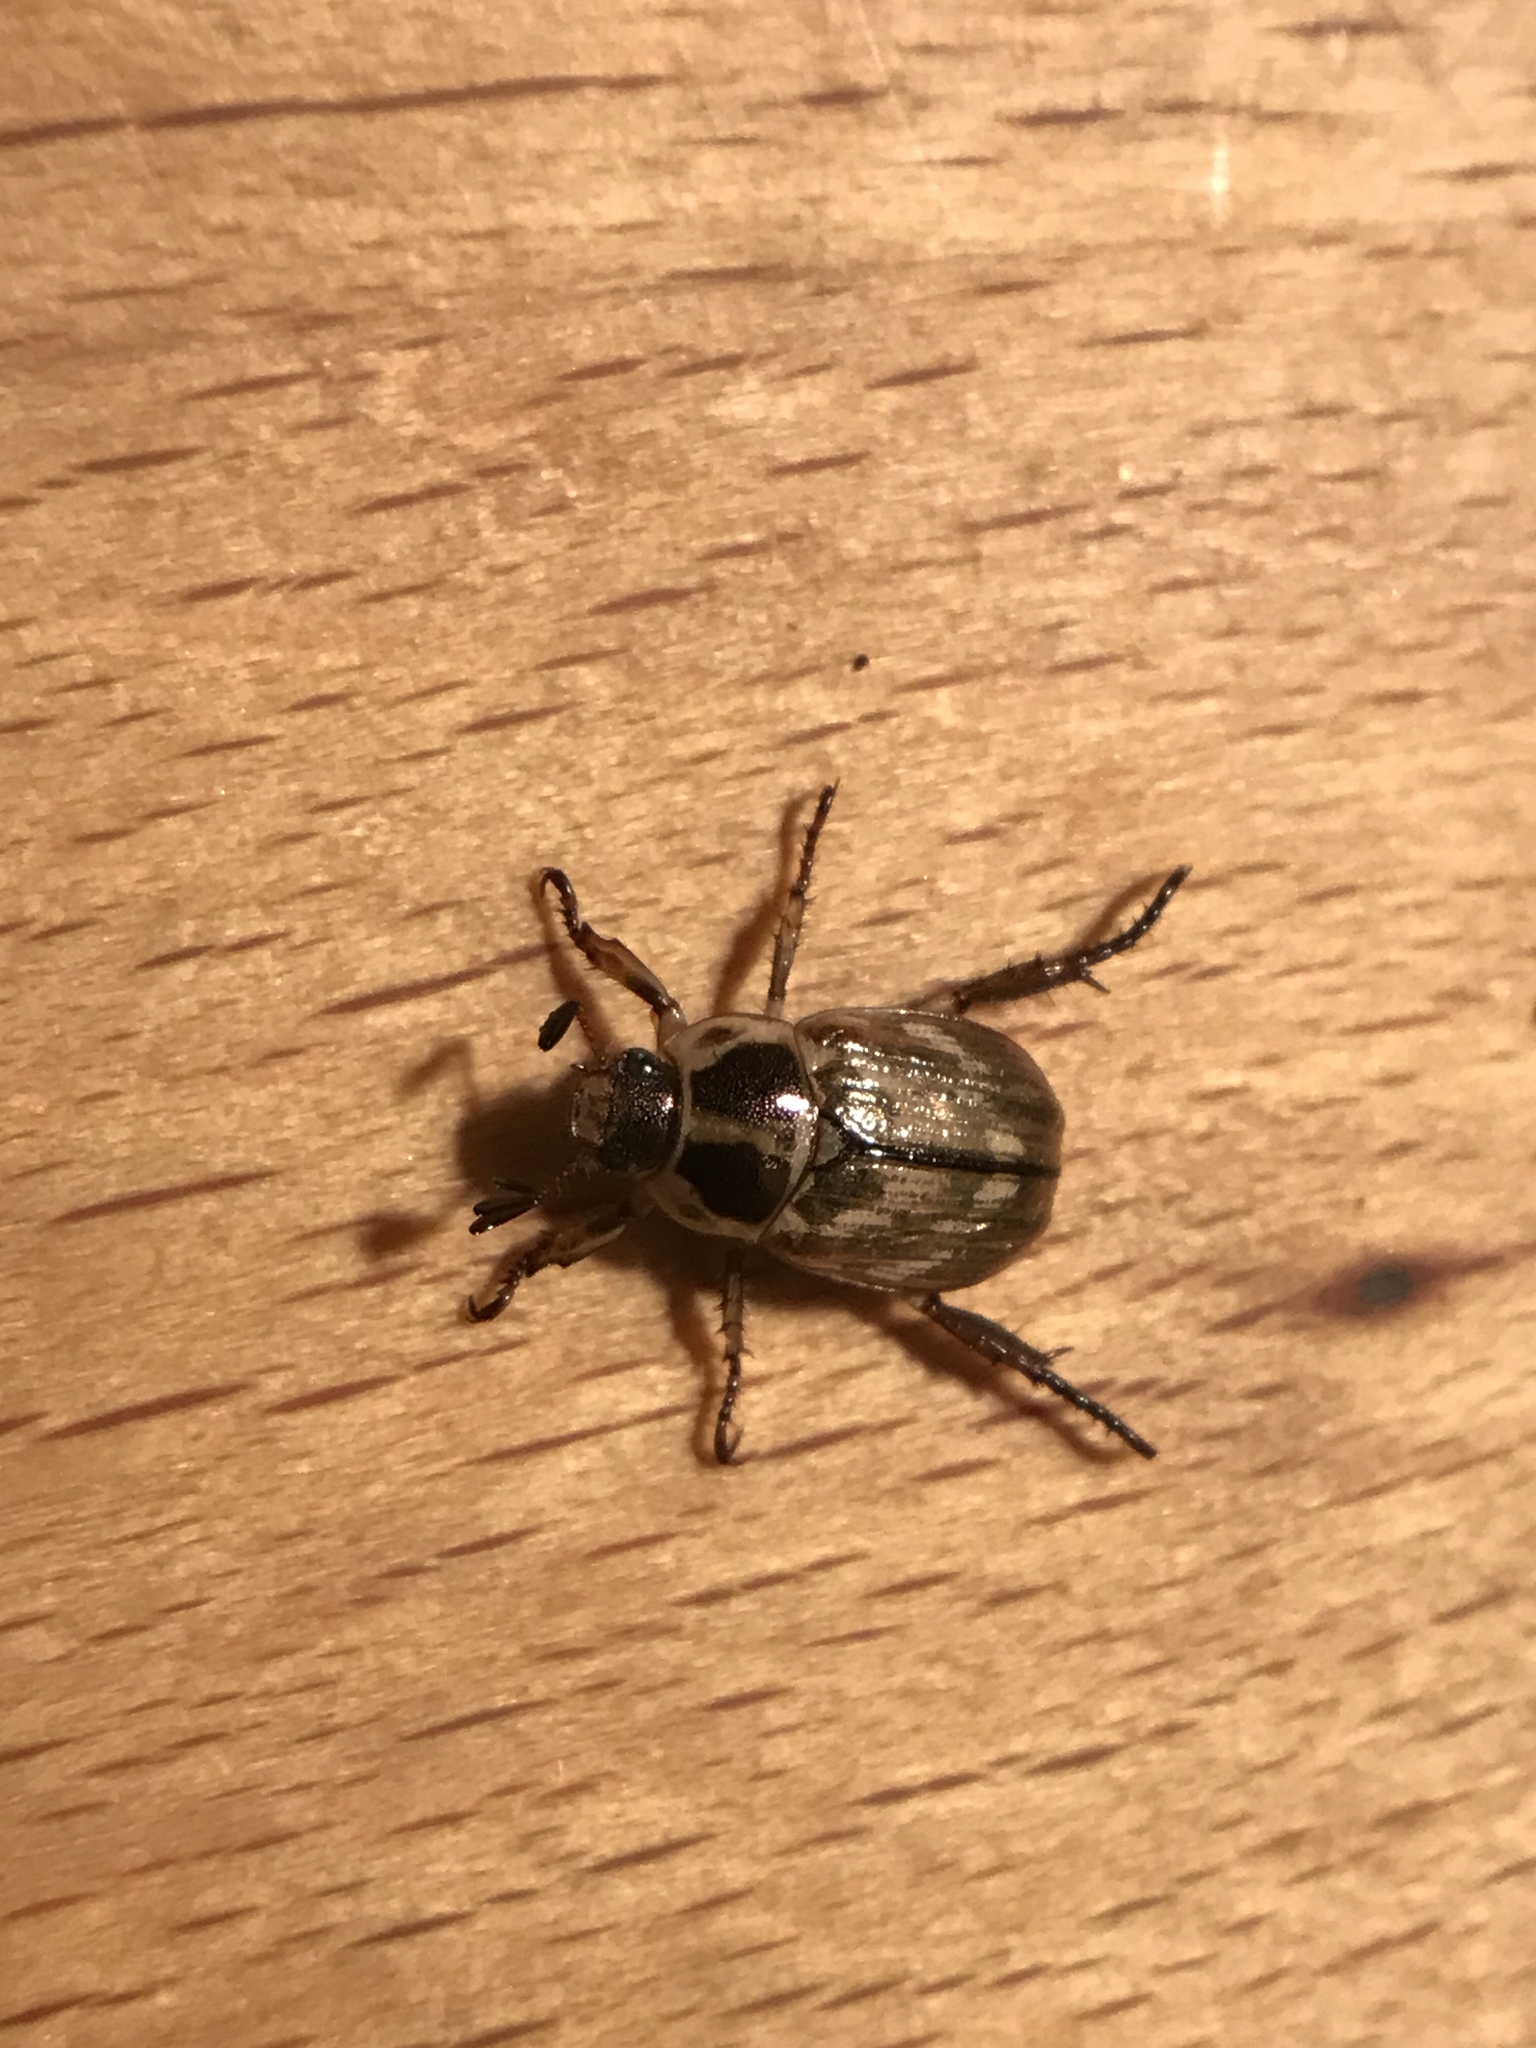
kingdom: Animalia
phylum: Arthropoda
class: Insecta
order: Coleoptera
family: Scarabaeidae
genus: Exomala
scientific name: Exomala orientalis
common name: Oriental beetle
